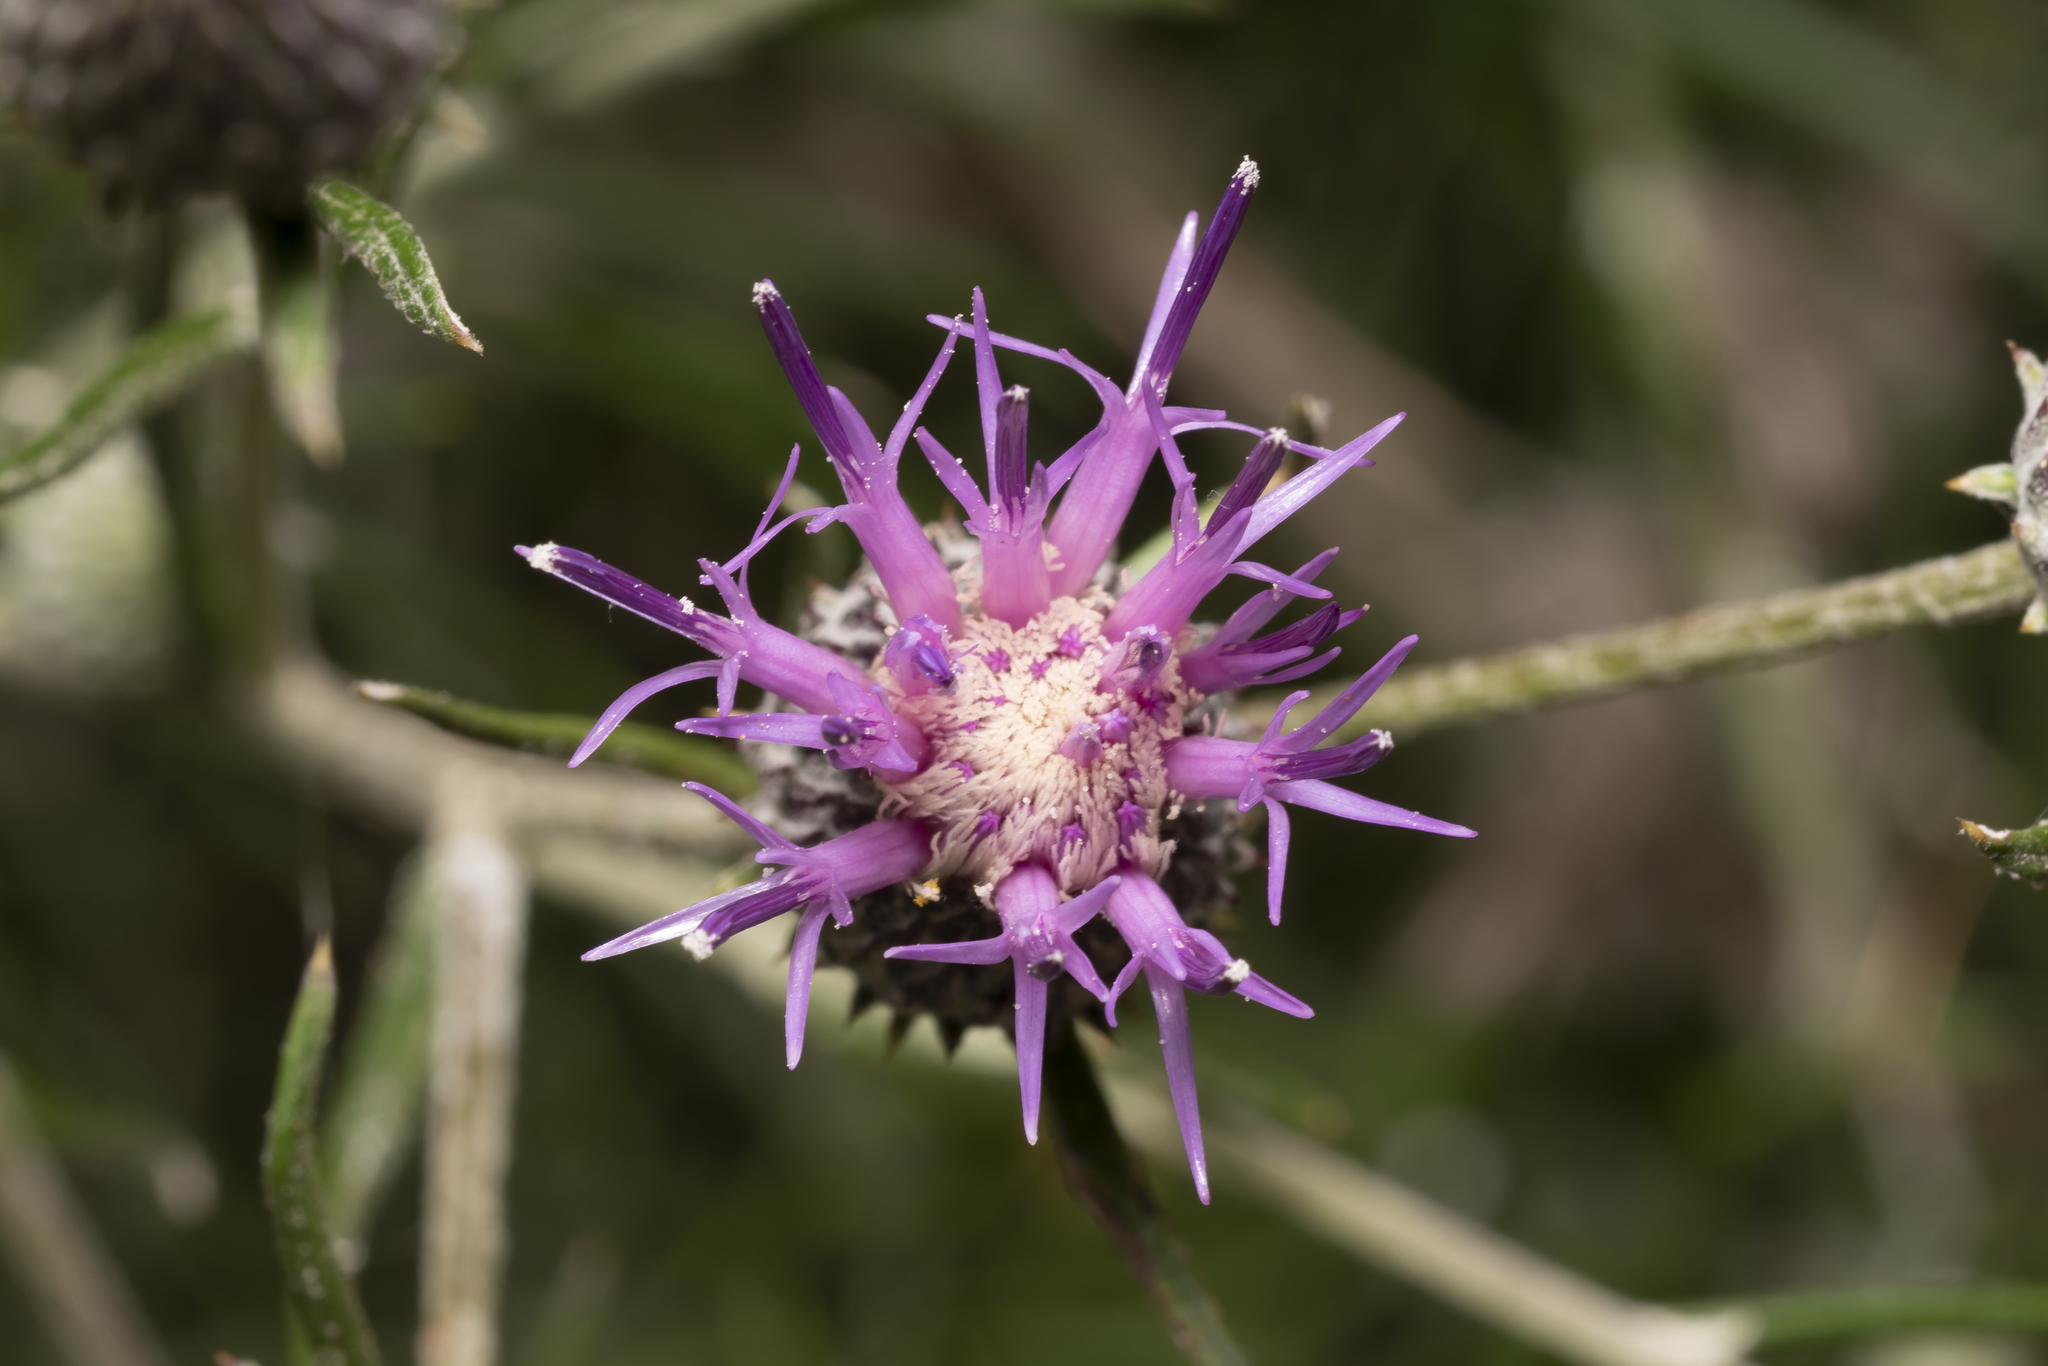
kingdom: Plantae
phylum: Tracheophyta
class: Magnoliopsida
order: Asterales
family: Asteraceae
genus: Ptilostemon
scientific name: Ptilostemon chamaepeuce
